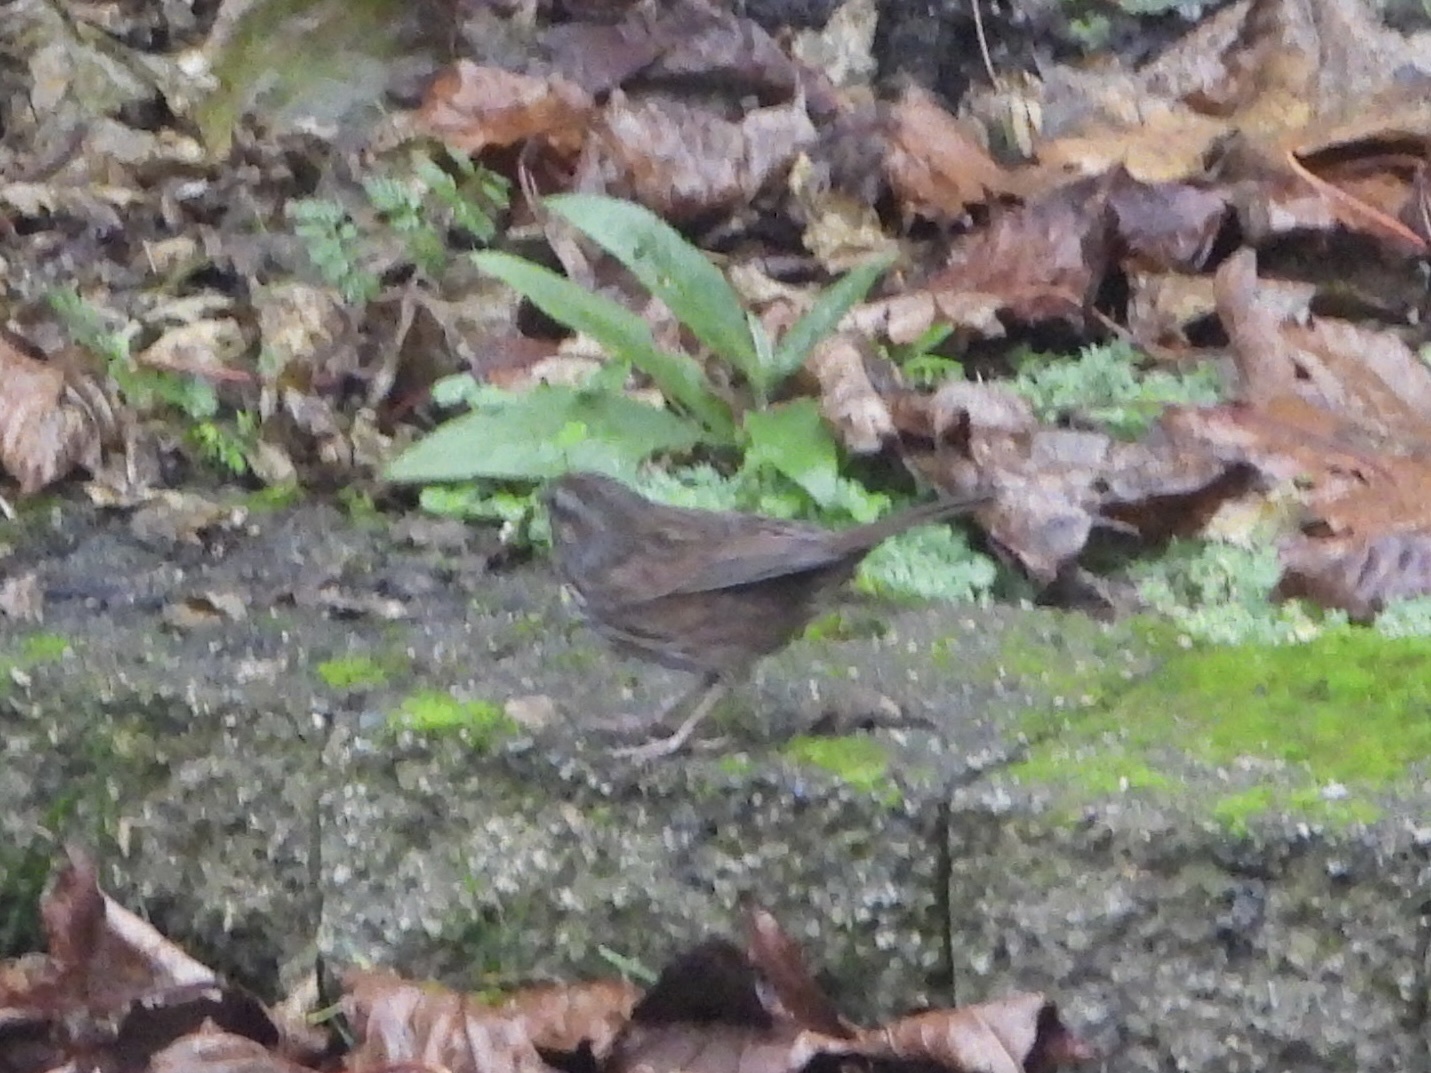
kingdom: Animalia
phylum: Chordata
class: Aves
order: Passeriformes
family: Passerellidae
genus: Melospiza
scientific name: Melospiza melodia
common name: Song sparrow
